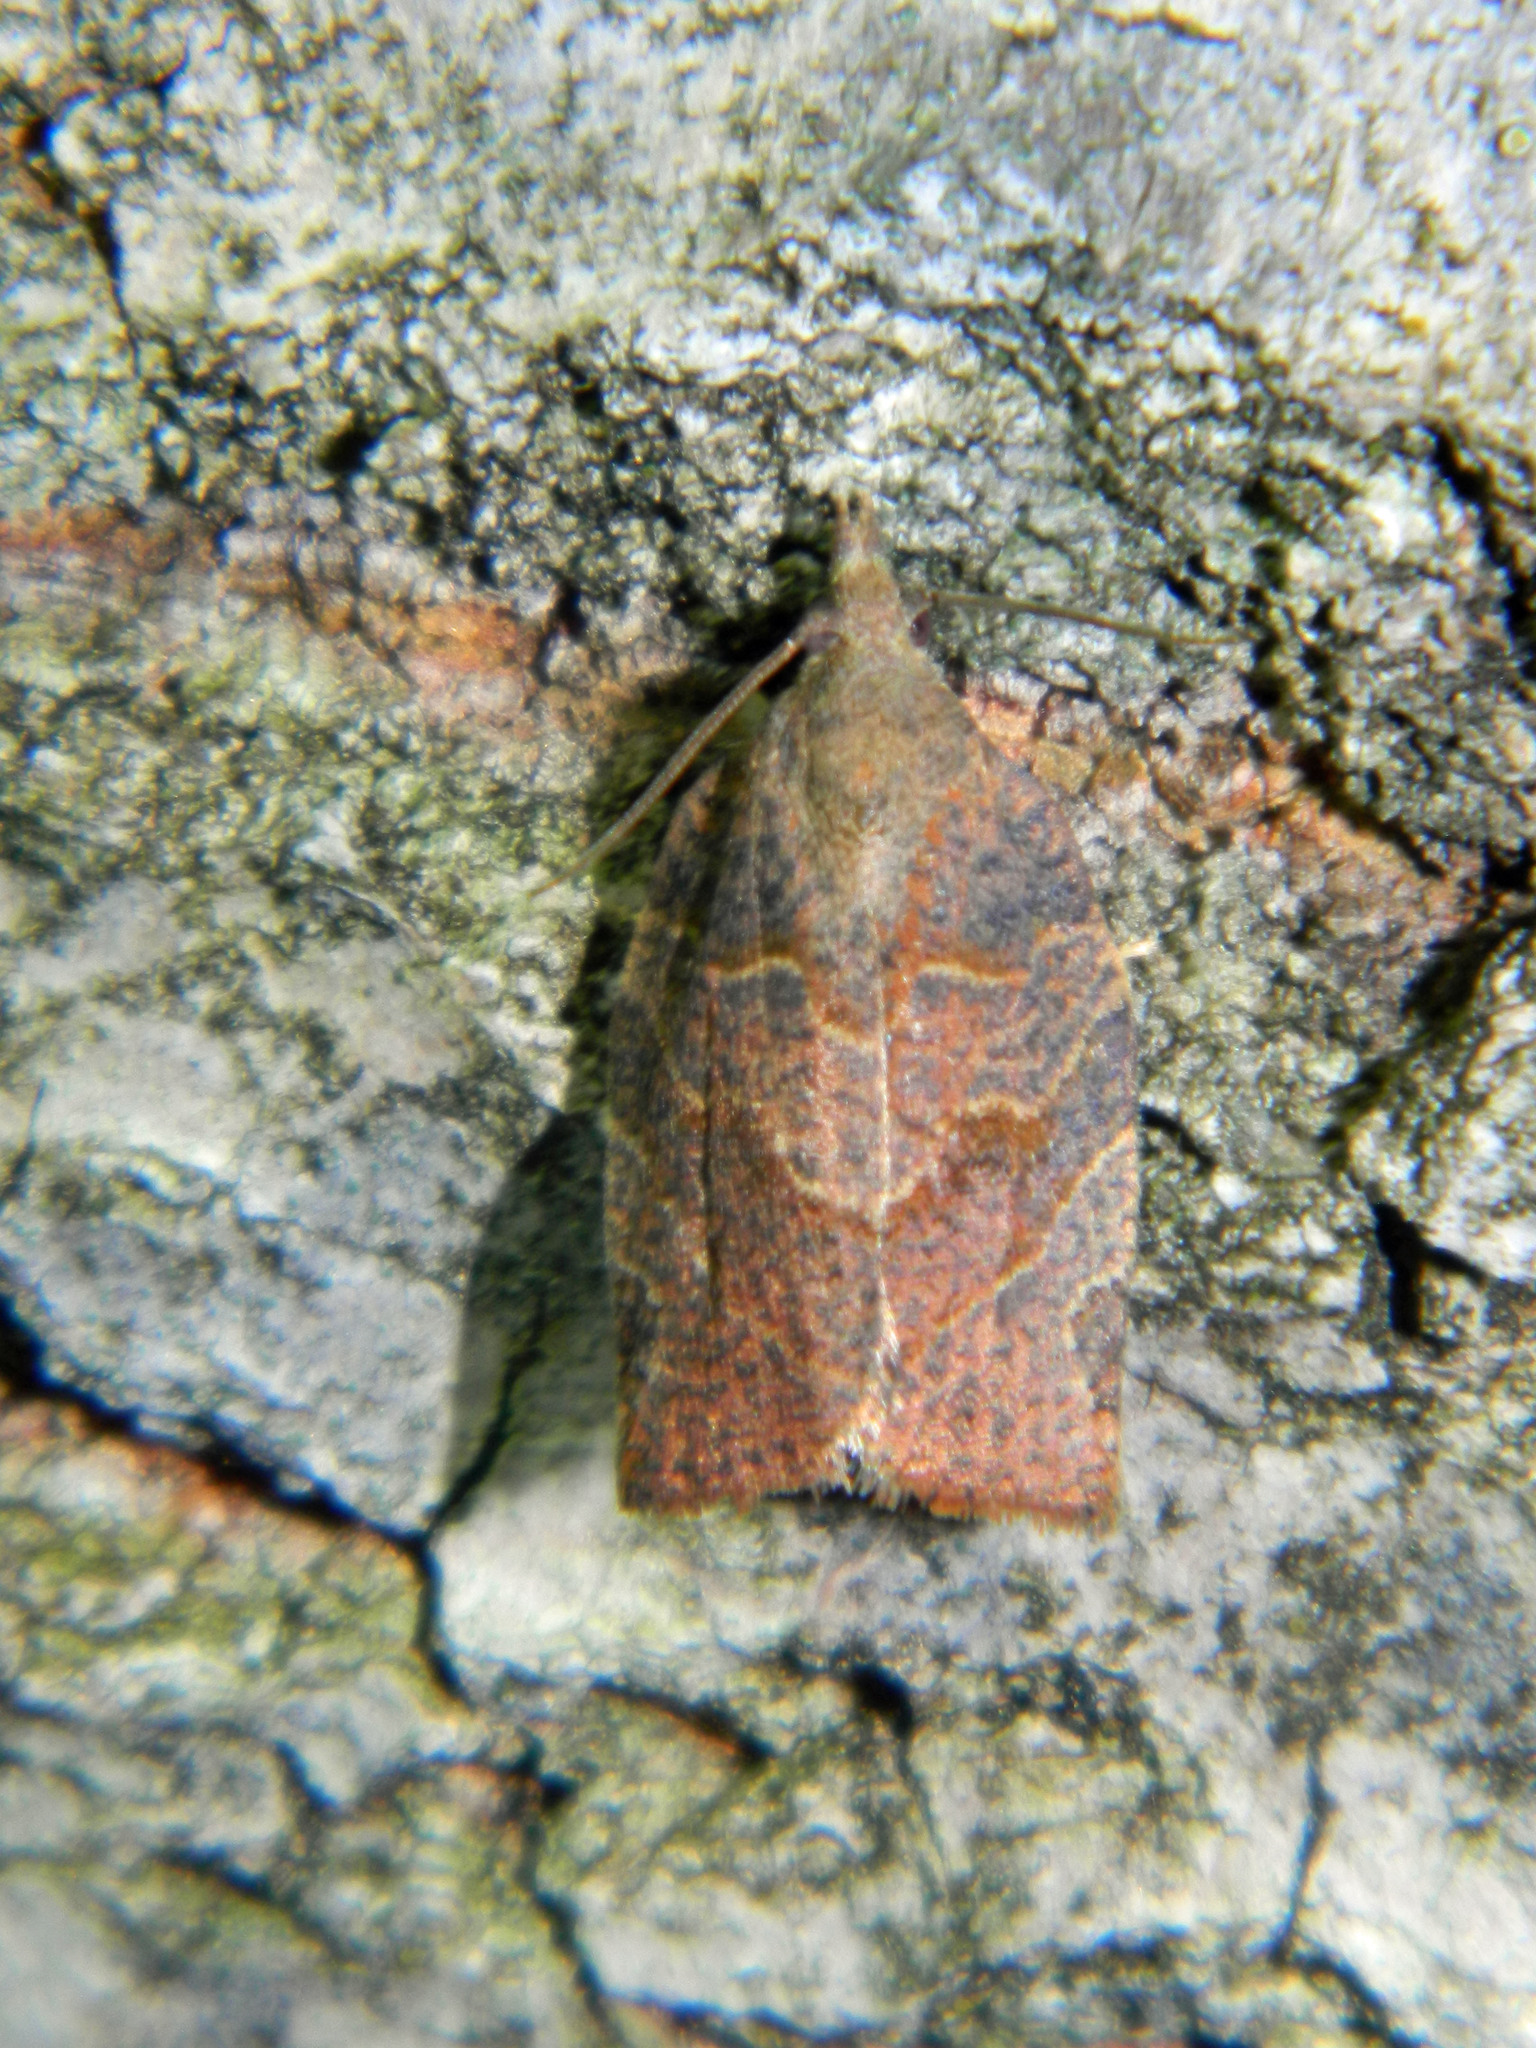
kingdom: Animalia
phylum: Arthropoda
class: Insecta
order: Lepidoptera
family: Tortricidae
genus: Pandemis
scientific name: Pandemis canadana
